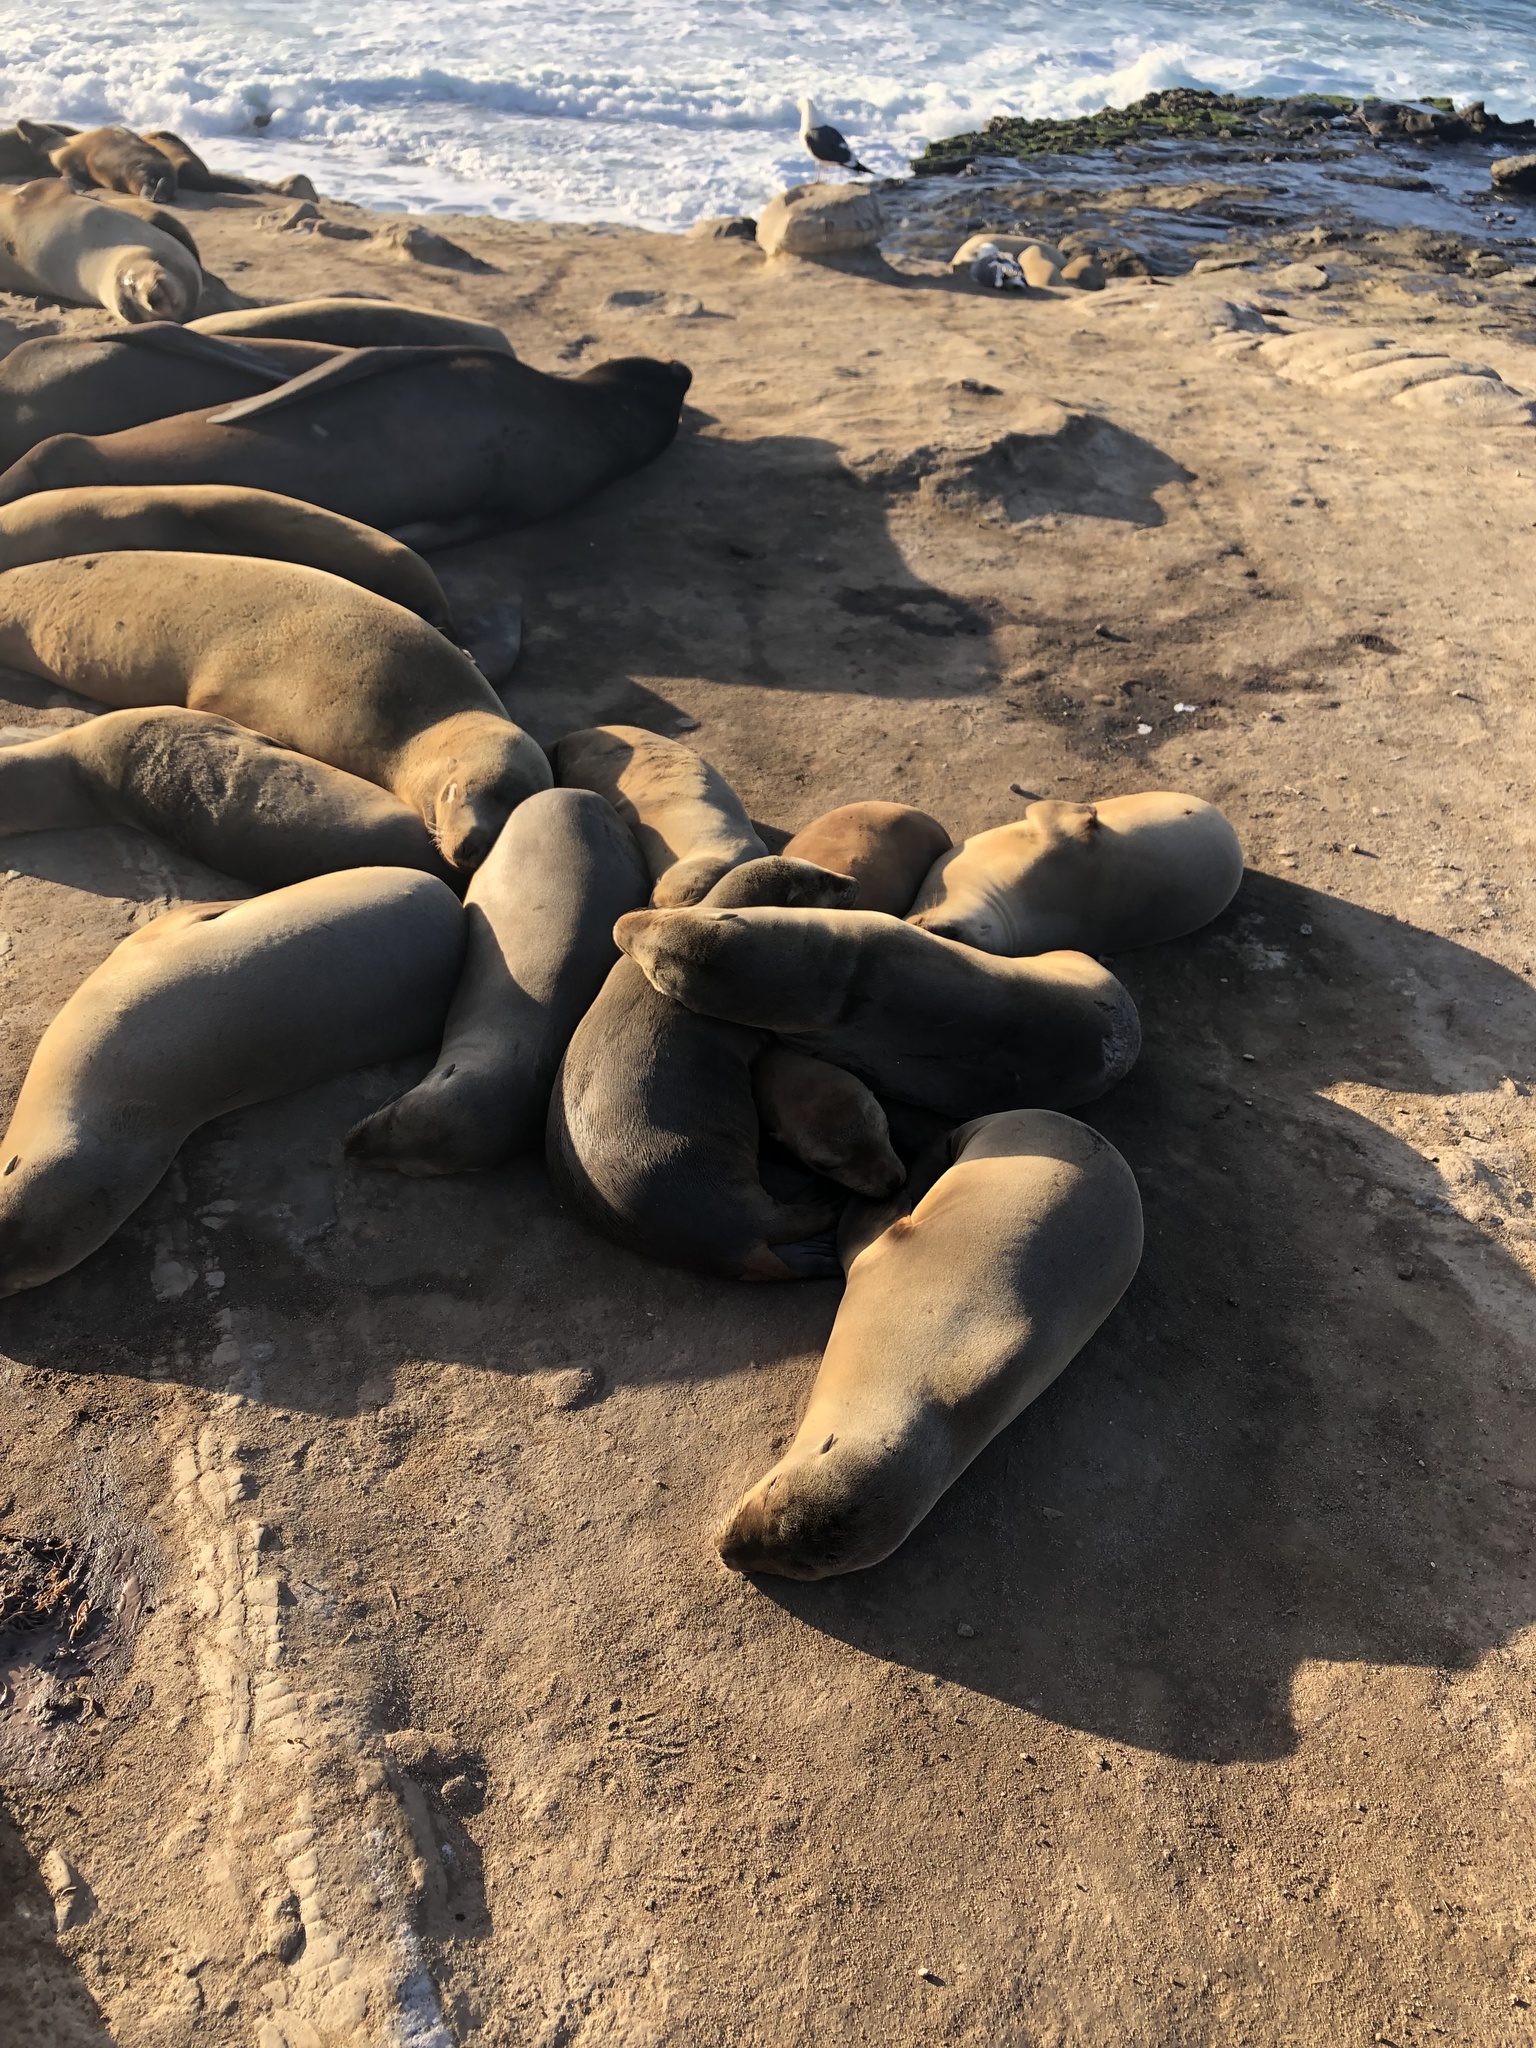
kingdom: Animalia
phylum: Chordata
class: Mammalia
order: Carnivora
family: Otariidae
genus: Zalophus
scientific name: Zalophus californianus
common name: California sea lion
